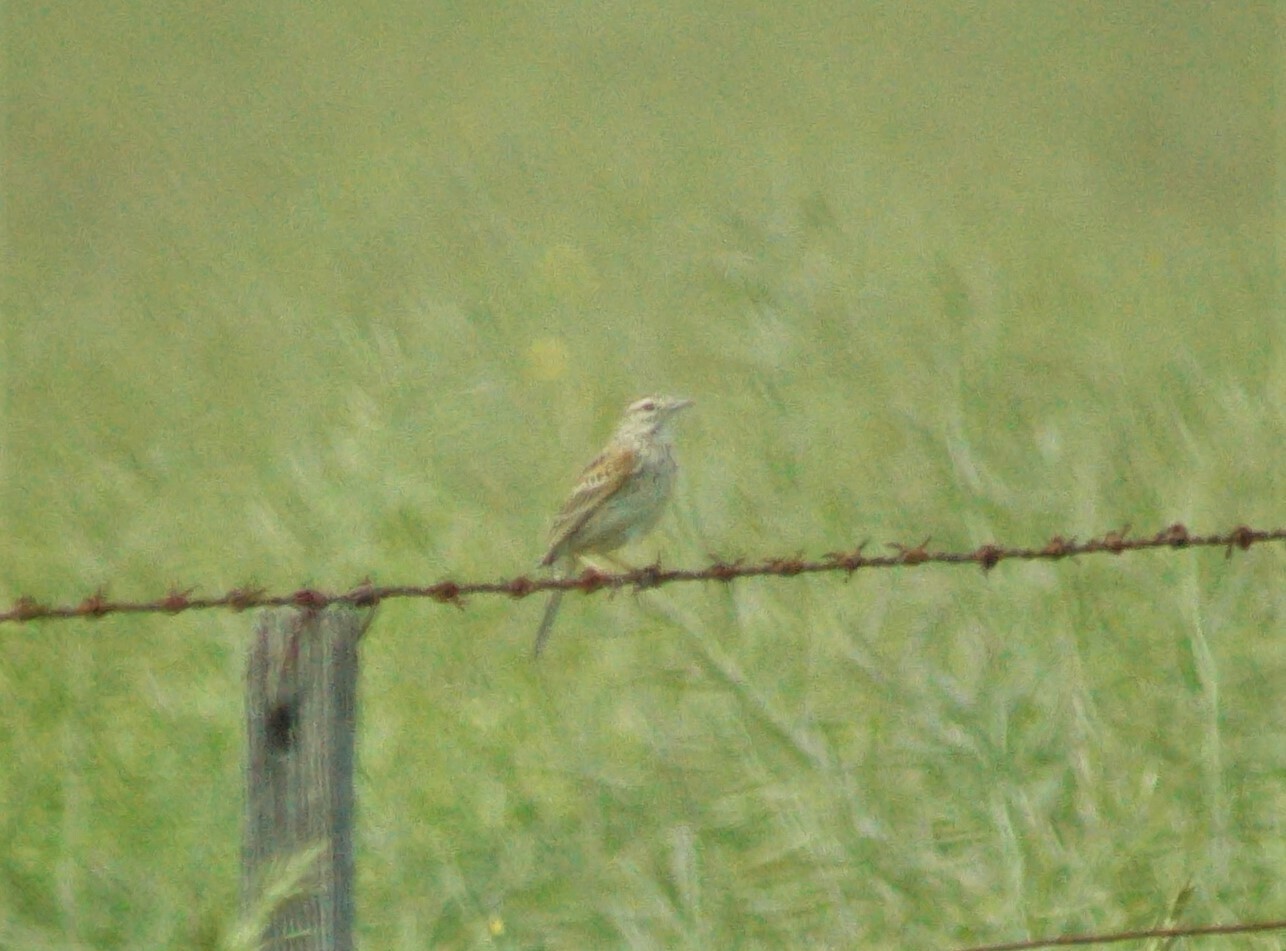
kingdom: Animalia
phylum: Chordata
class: Aves
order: Passeriformes
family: Motacillidae
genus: Anthus
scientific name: Anthus australis
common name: Australian pipit
